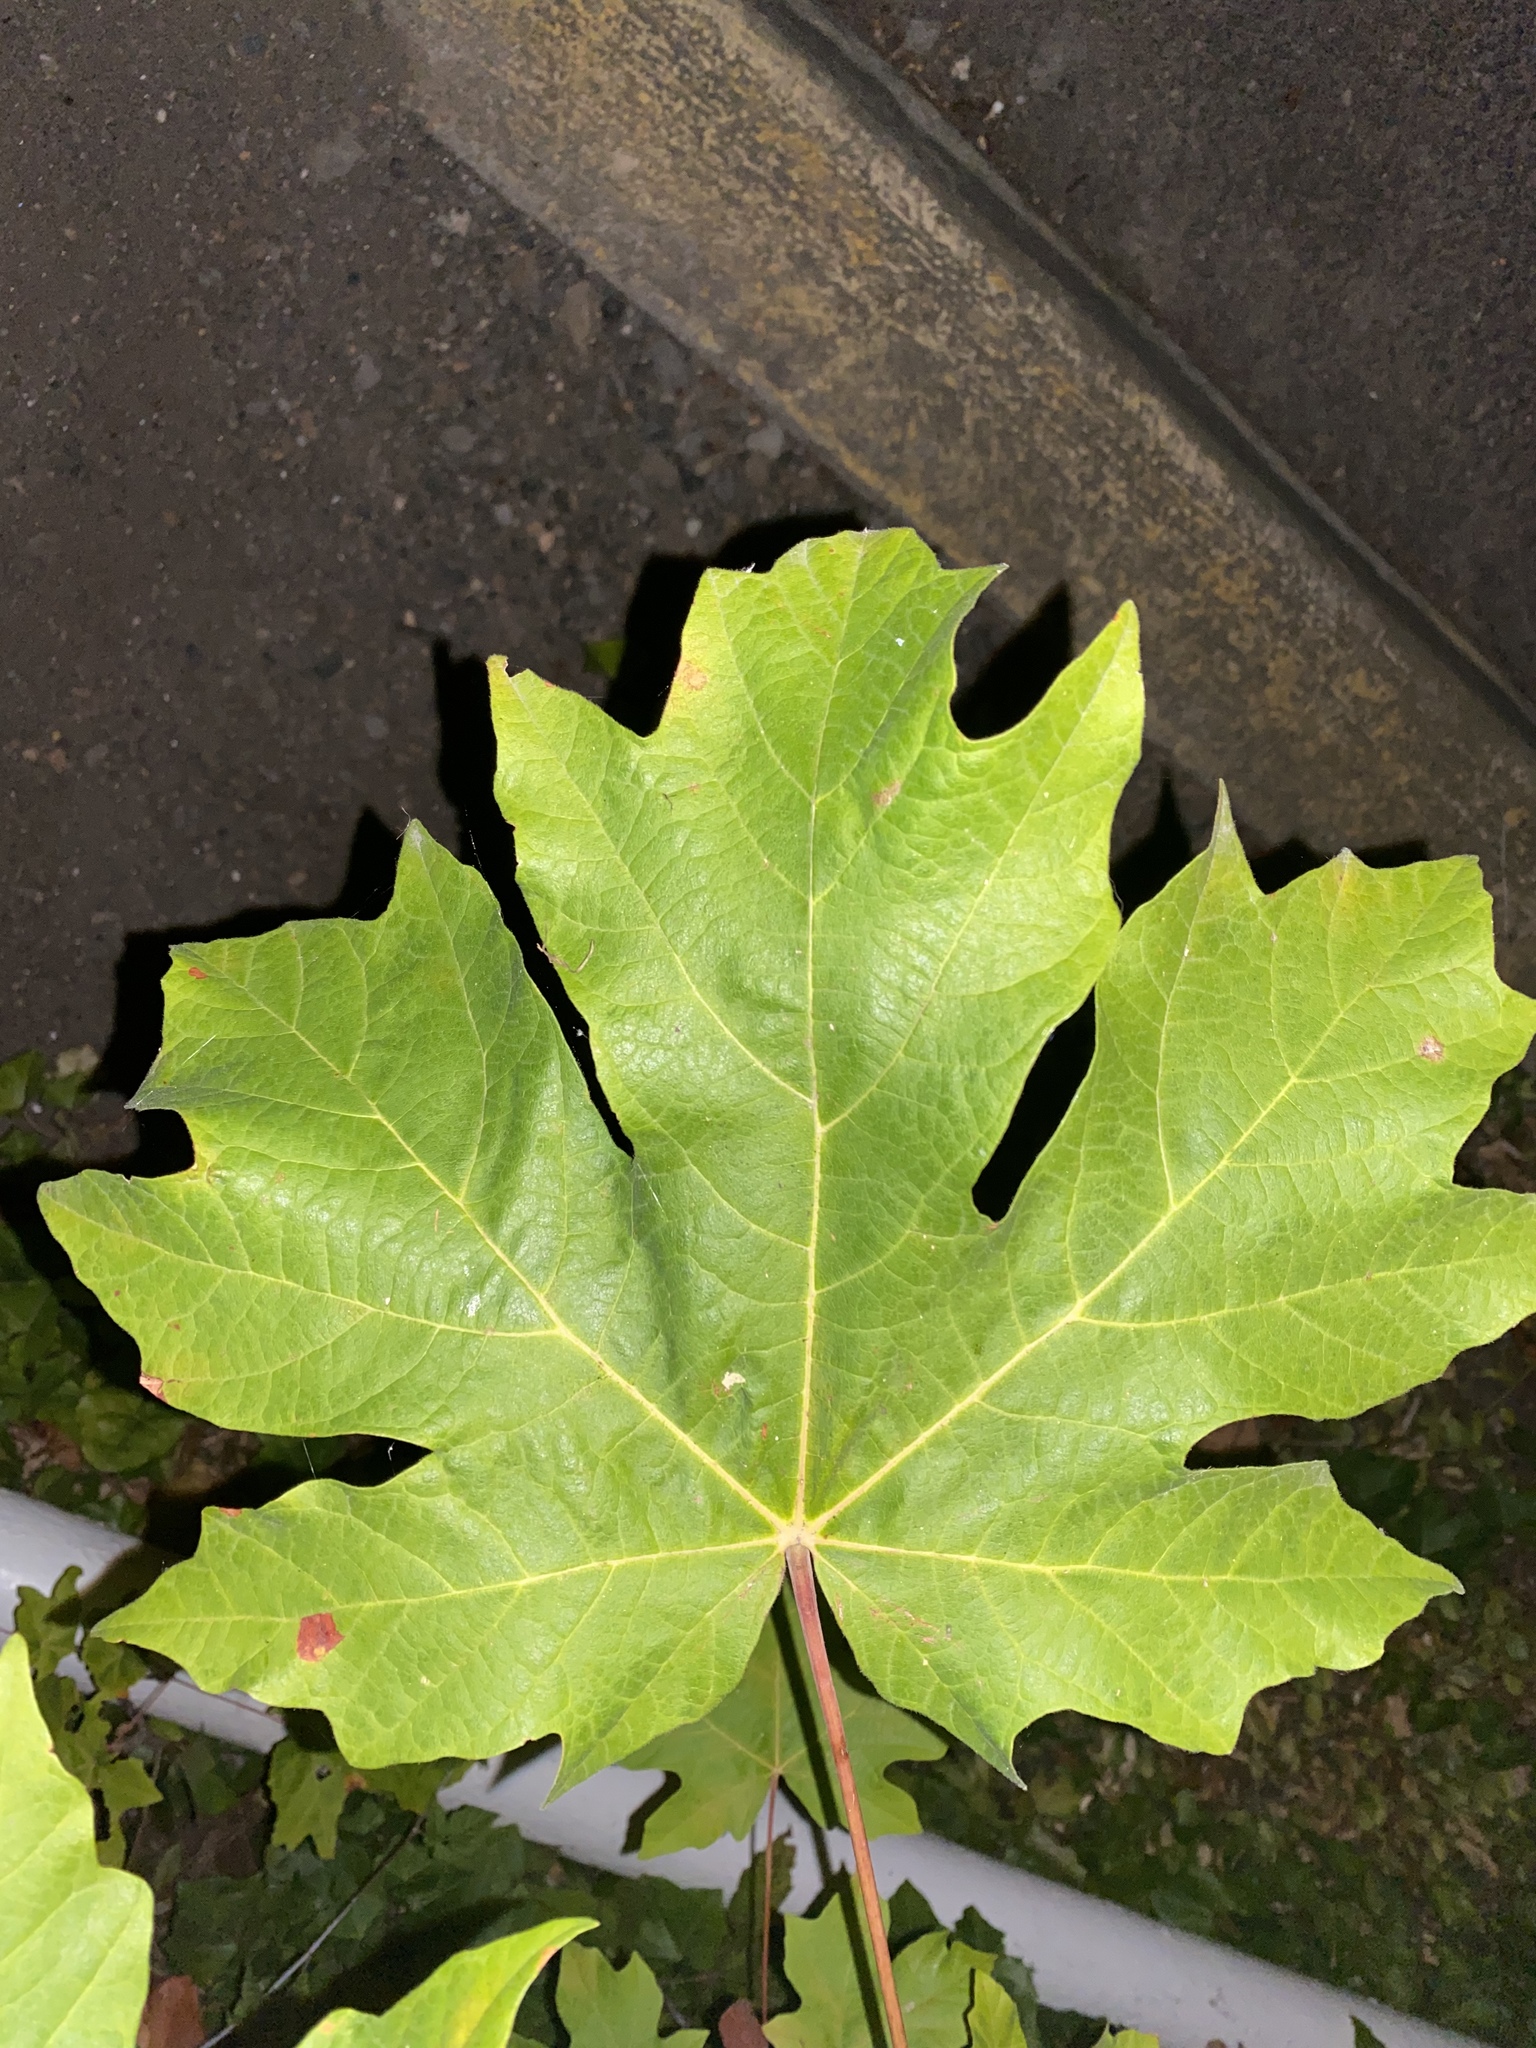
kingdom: Plantae
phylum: Tracheophyta
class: Magnoliopsida
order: Sapindales
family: Sapindaceae
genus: Acer
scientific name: Acer macrophyllum
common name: Oregon maple
